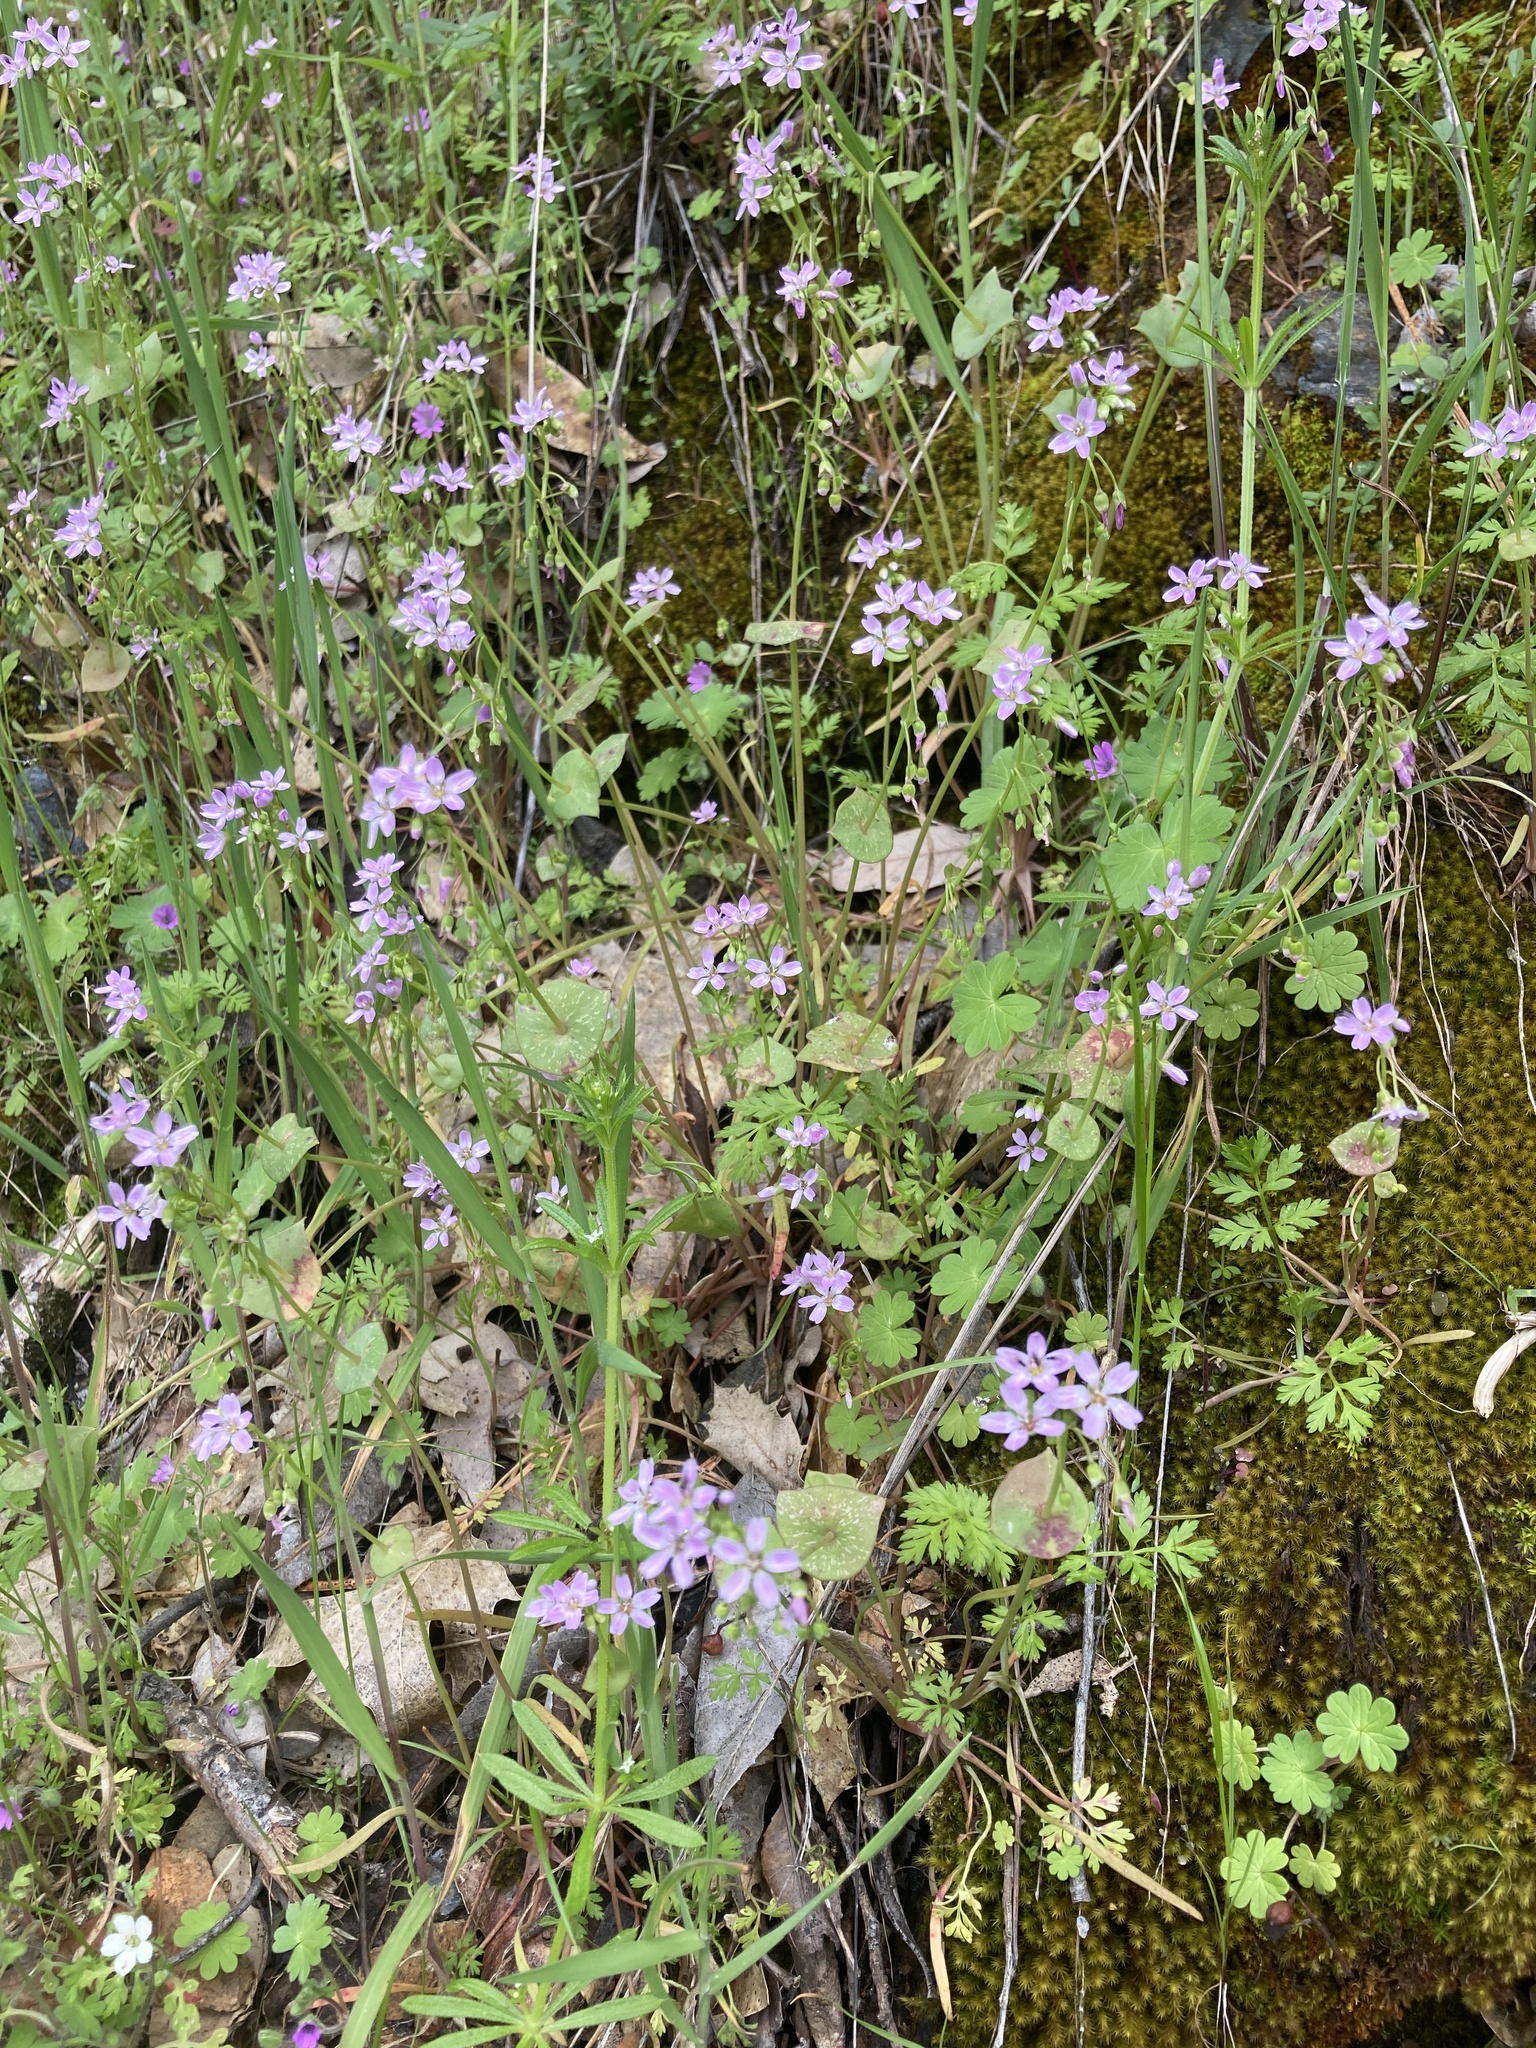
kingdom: Plantae
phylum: Tracheophyta
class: Magnoliopsida
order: Caryophyllales
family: Montiaceae
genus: Claytonia
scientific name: Claytonia parviflora
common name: Indian-lettuce
